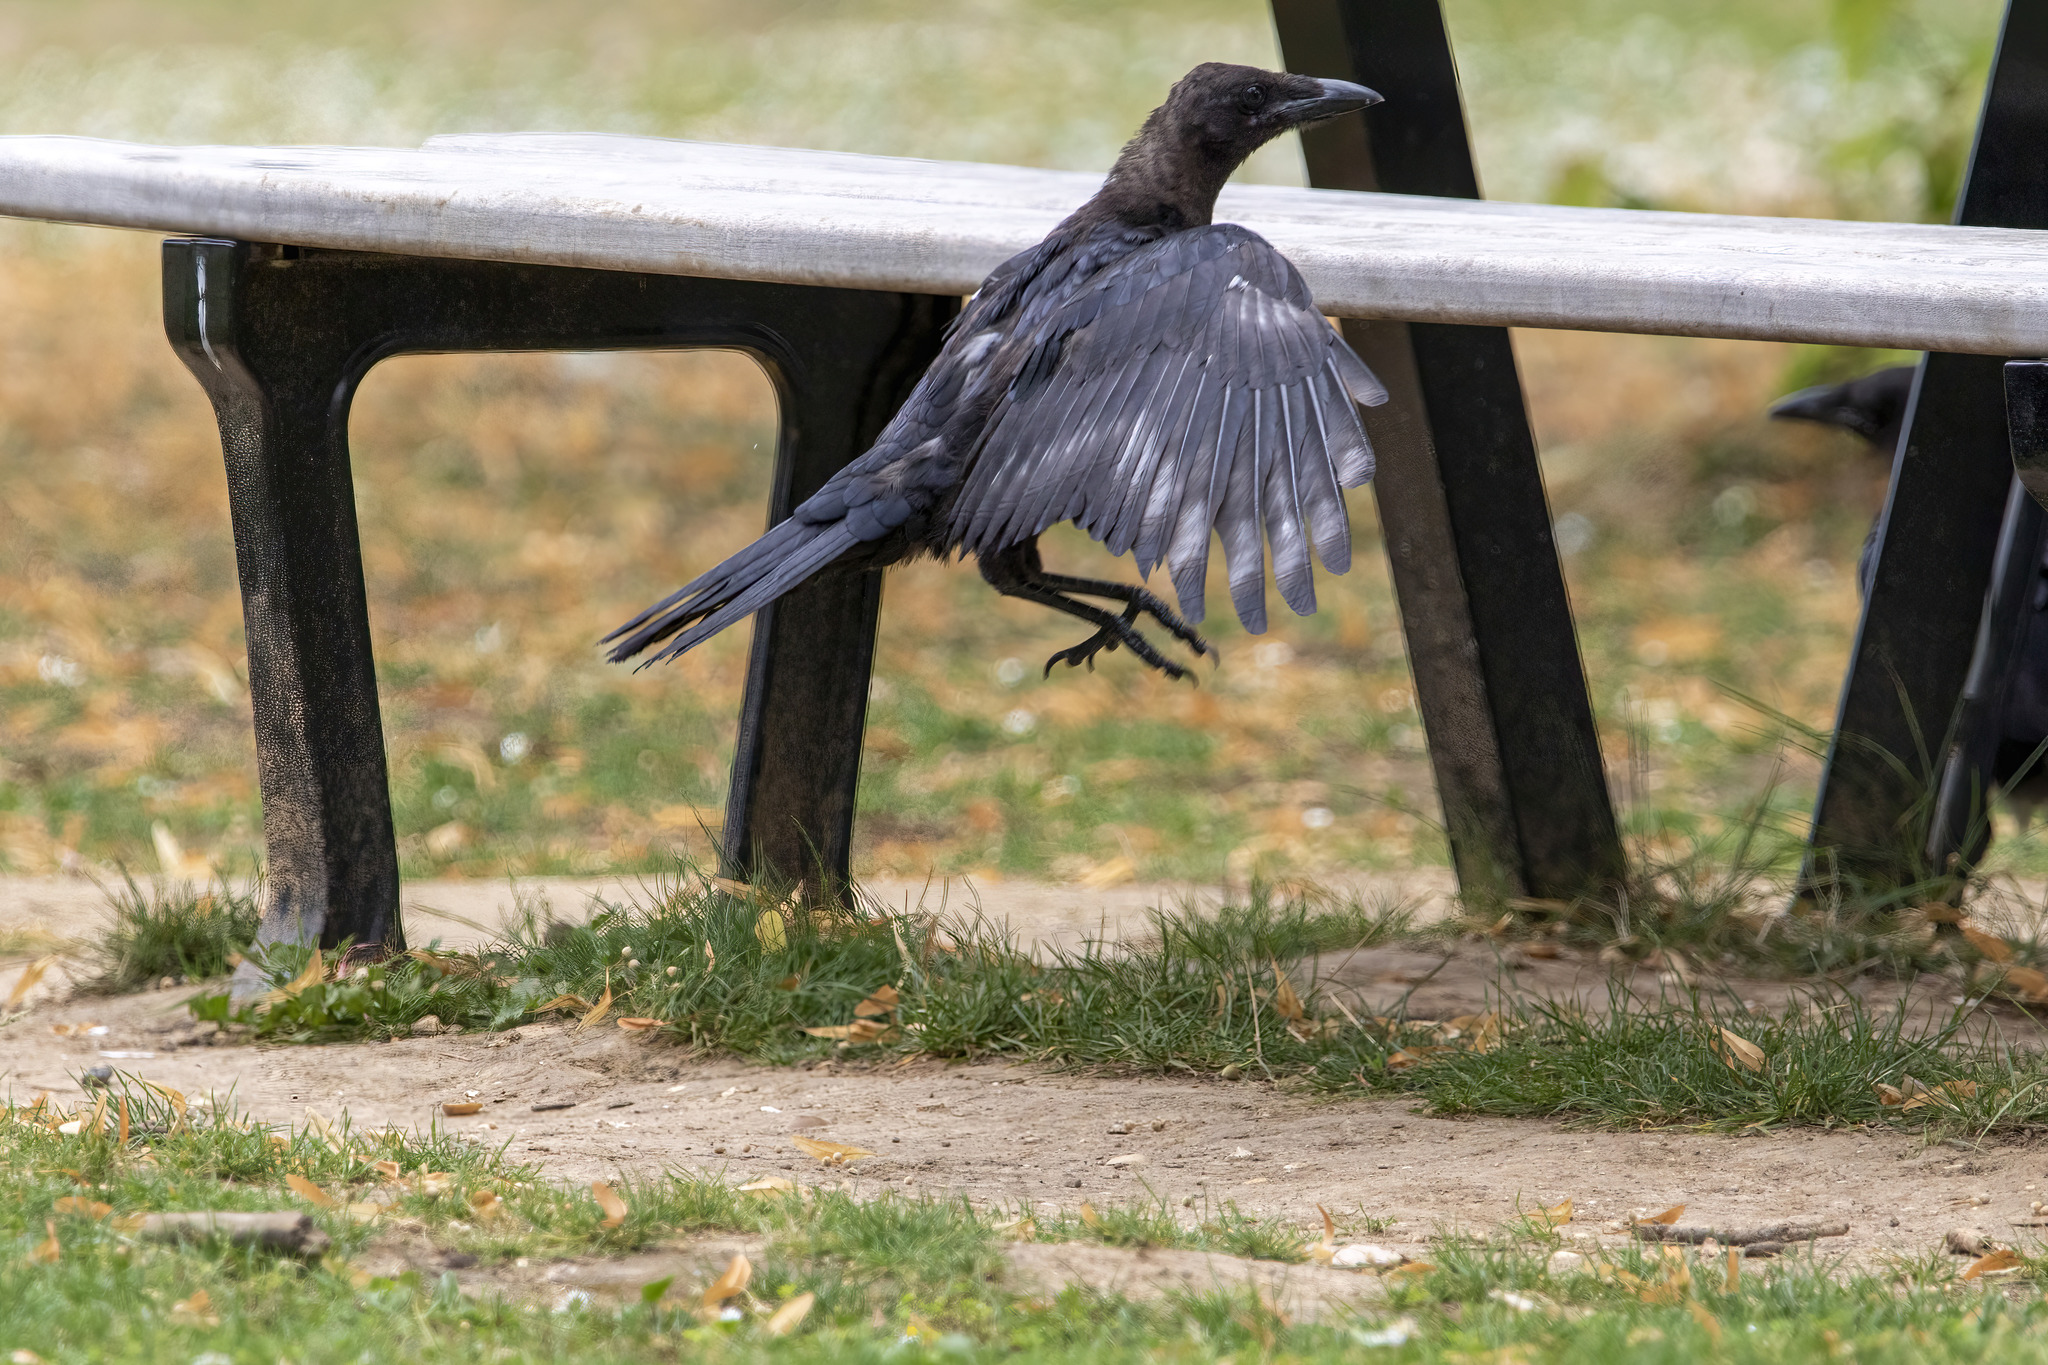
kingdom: Animalia
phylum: Chordata
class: Aves
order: Passeriformes
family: Corvidae
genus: Corvus
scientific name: Corvus corone
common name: Carrion crow
